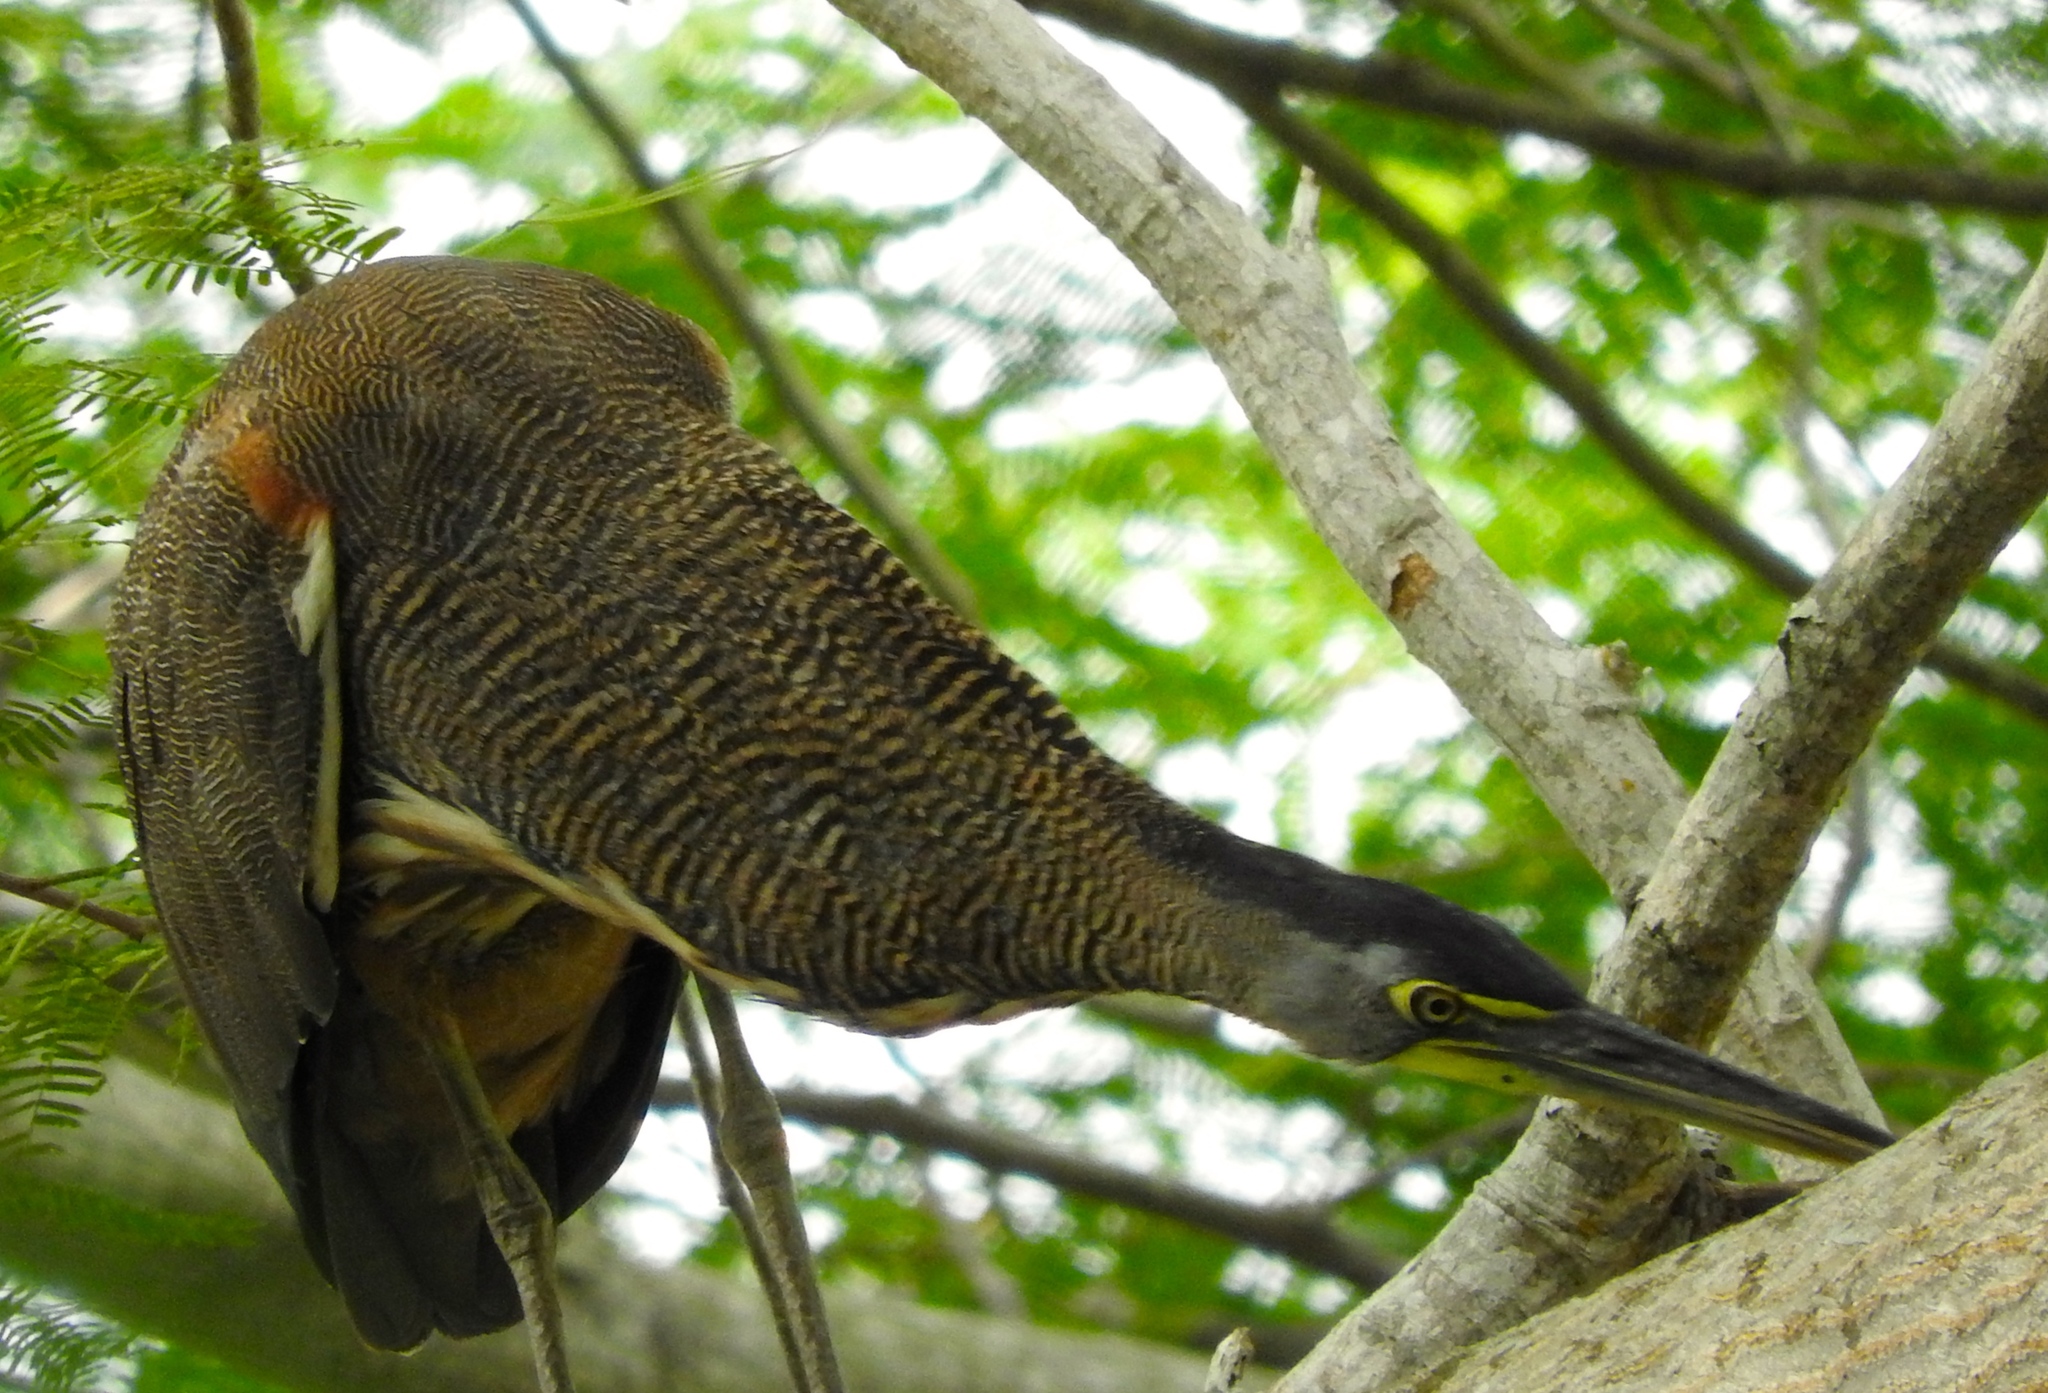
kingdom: Animalia
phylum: Chordata
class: Aves
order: Pelecaniformes
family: Ardeidae
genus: Tigrisoma
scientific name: Tigrisoma mexicanum
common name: Bare-throated tiger-heron
